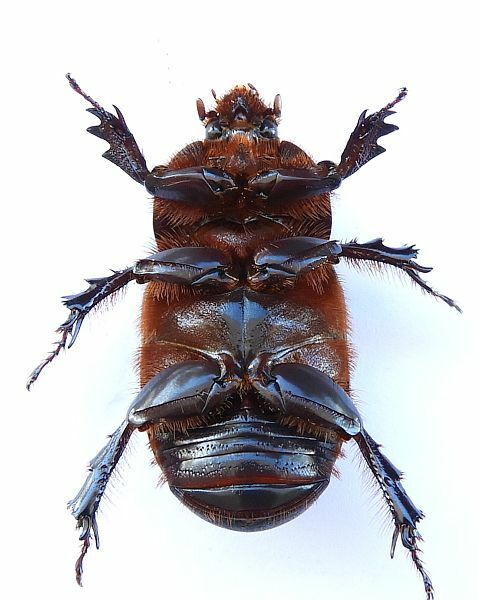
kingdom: Animalia
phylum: Arthropoda
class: Insecta
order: Coleoptera
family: Scarabaeidae
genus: Xyloryctes
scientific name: Xyloryctes thestalus
